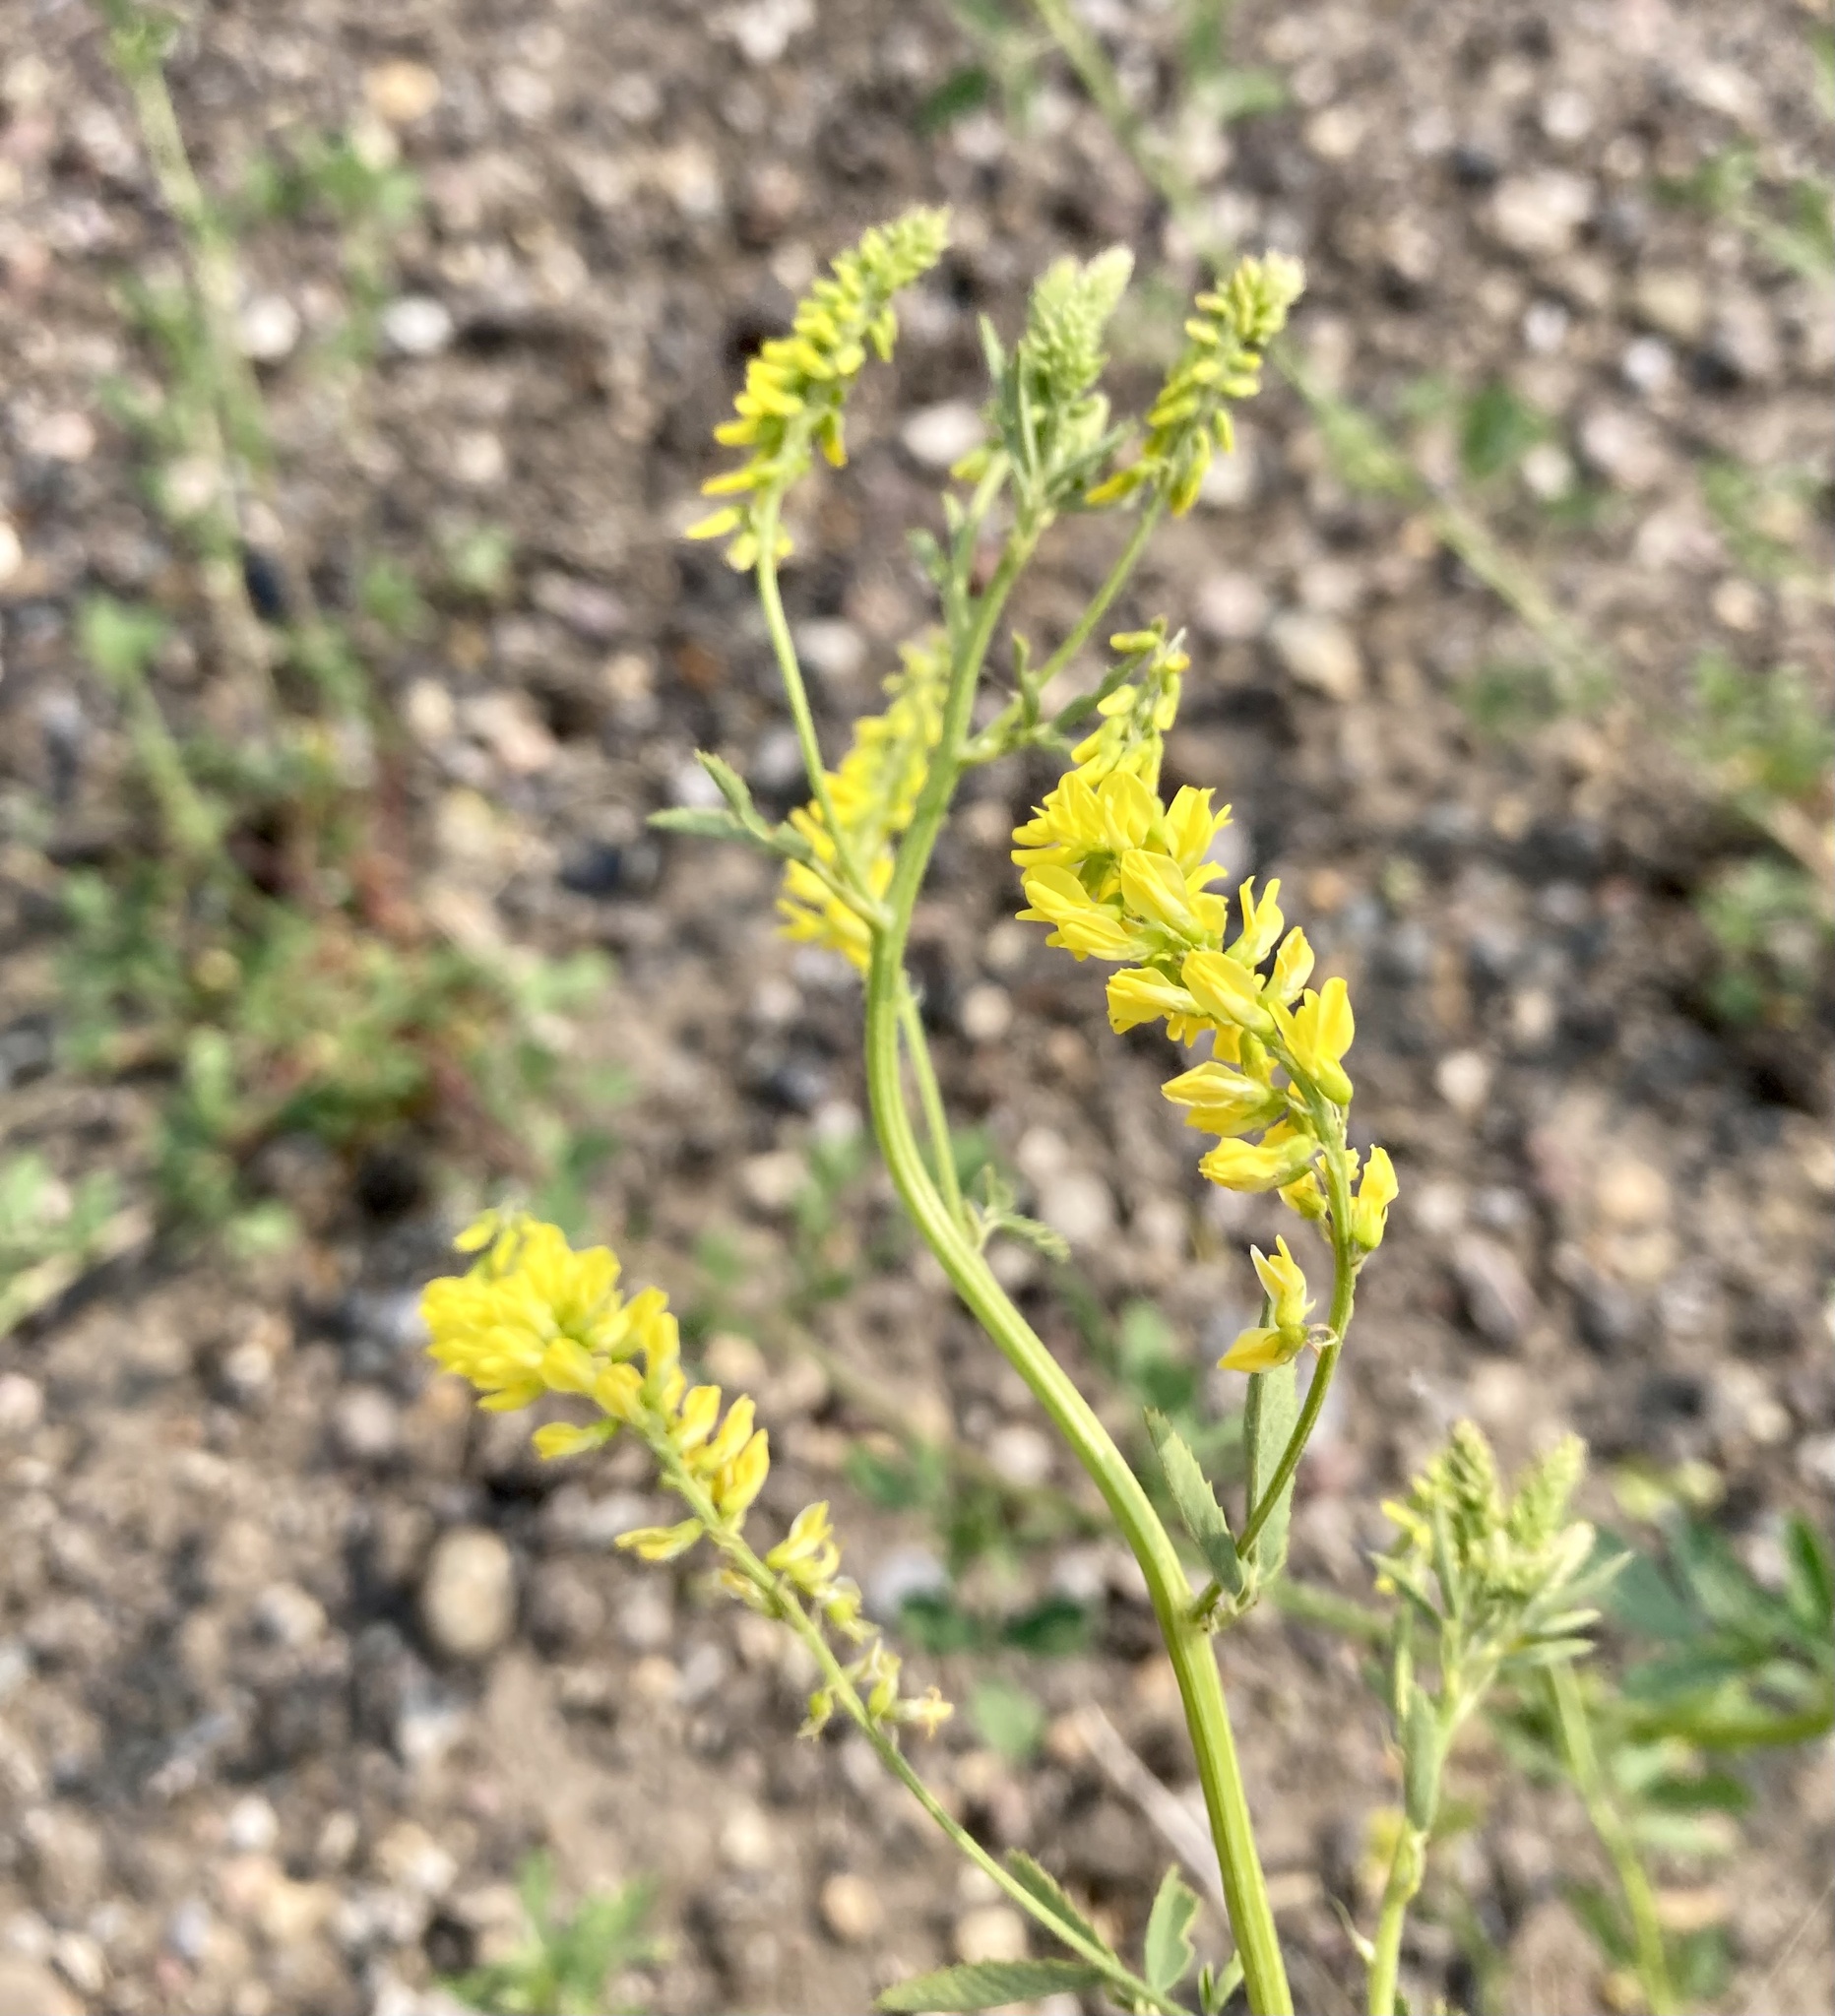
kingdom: Plantae
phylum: Tracheophyta
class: Magnoliopsida
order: Fabales
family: Fabaceae
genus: Melilotus
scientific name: Melilotus officinalis
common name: Sweetclover
